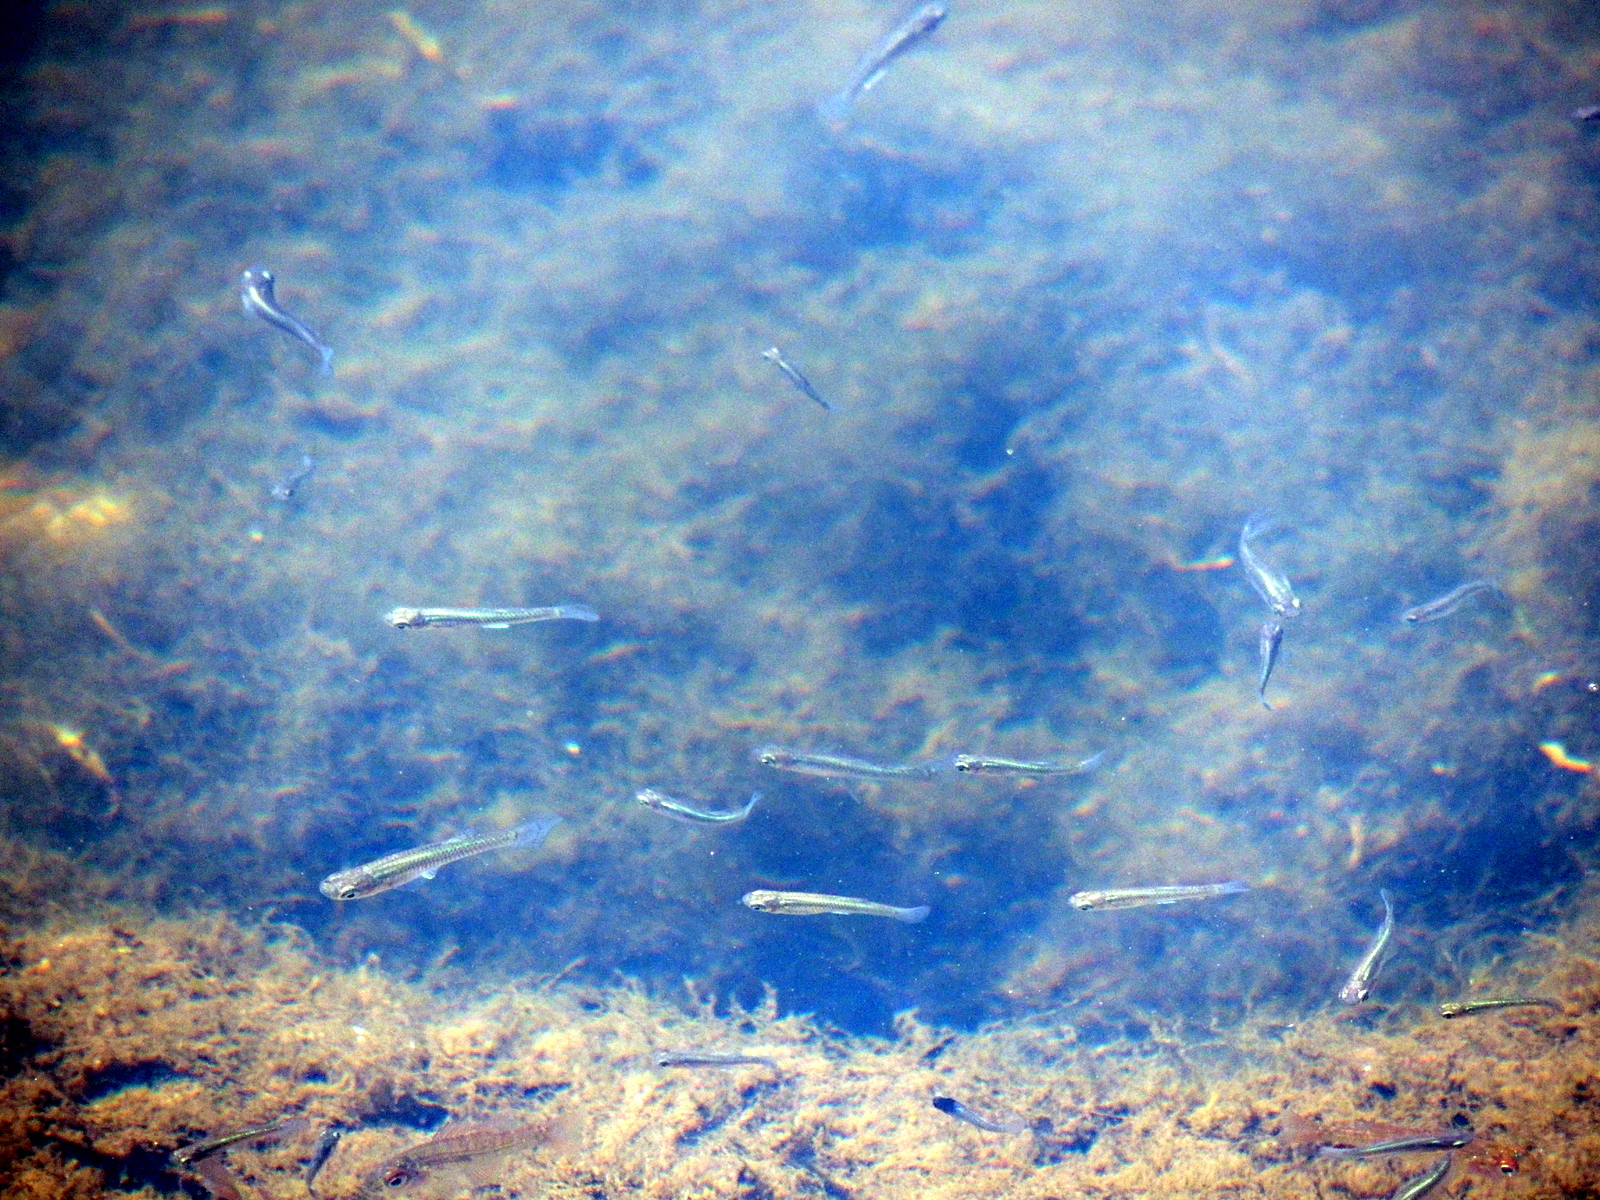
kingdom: Animalia
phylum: Chordata
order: Cyprinodontiformes
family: Poeciliidae
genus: Gambusia
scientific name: Gambusia holbrooki
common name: Eastern mosquitofish
